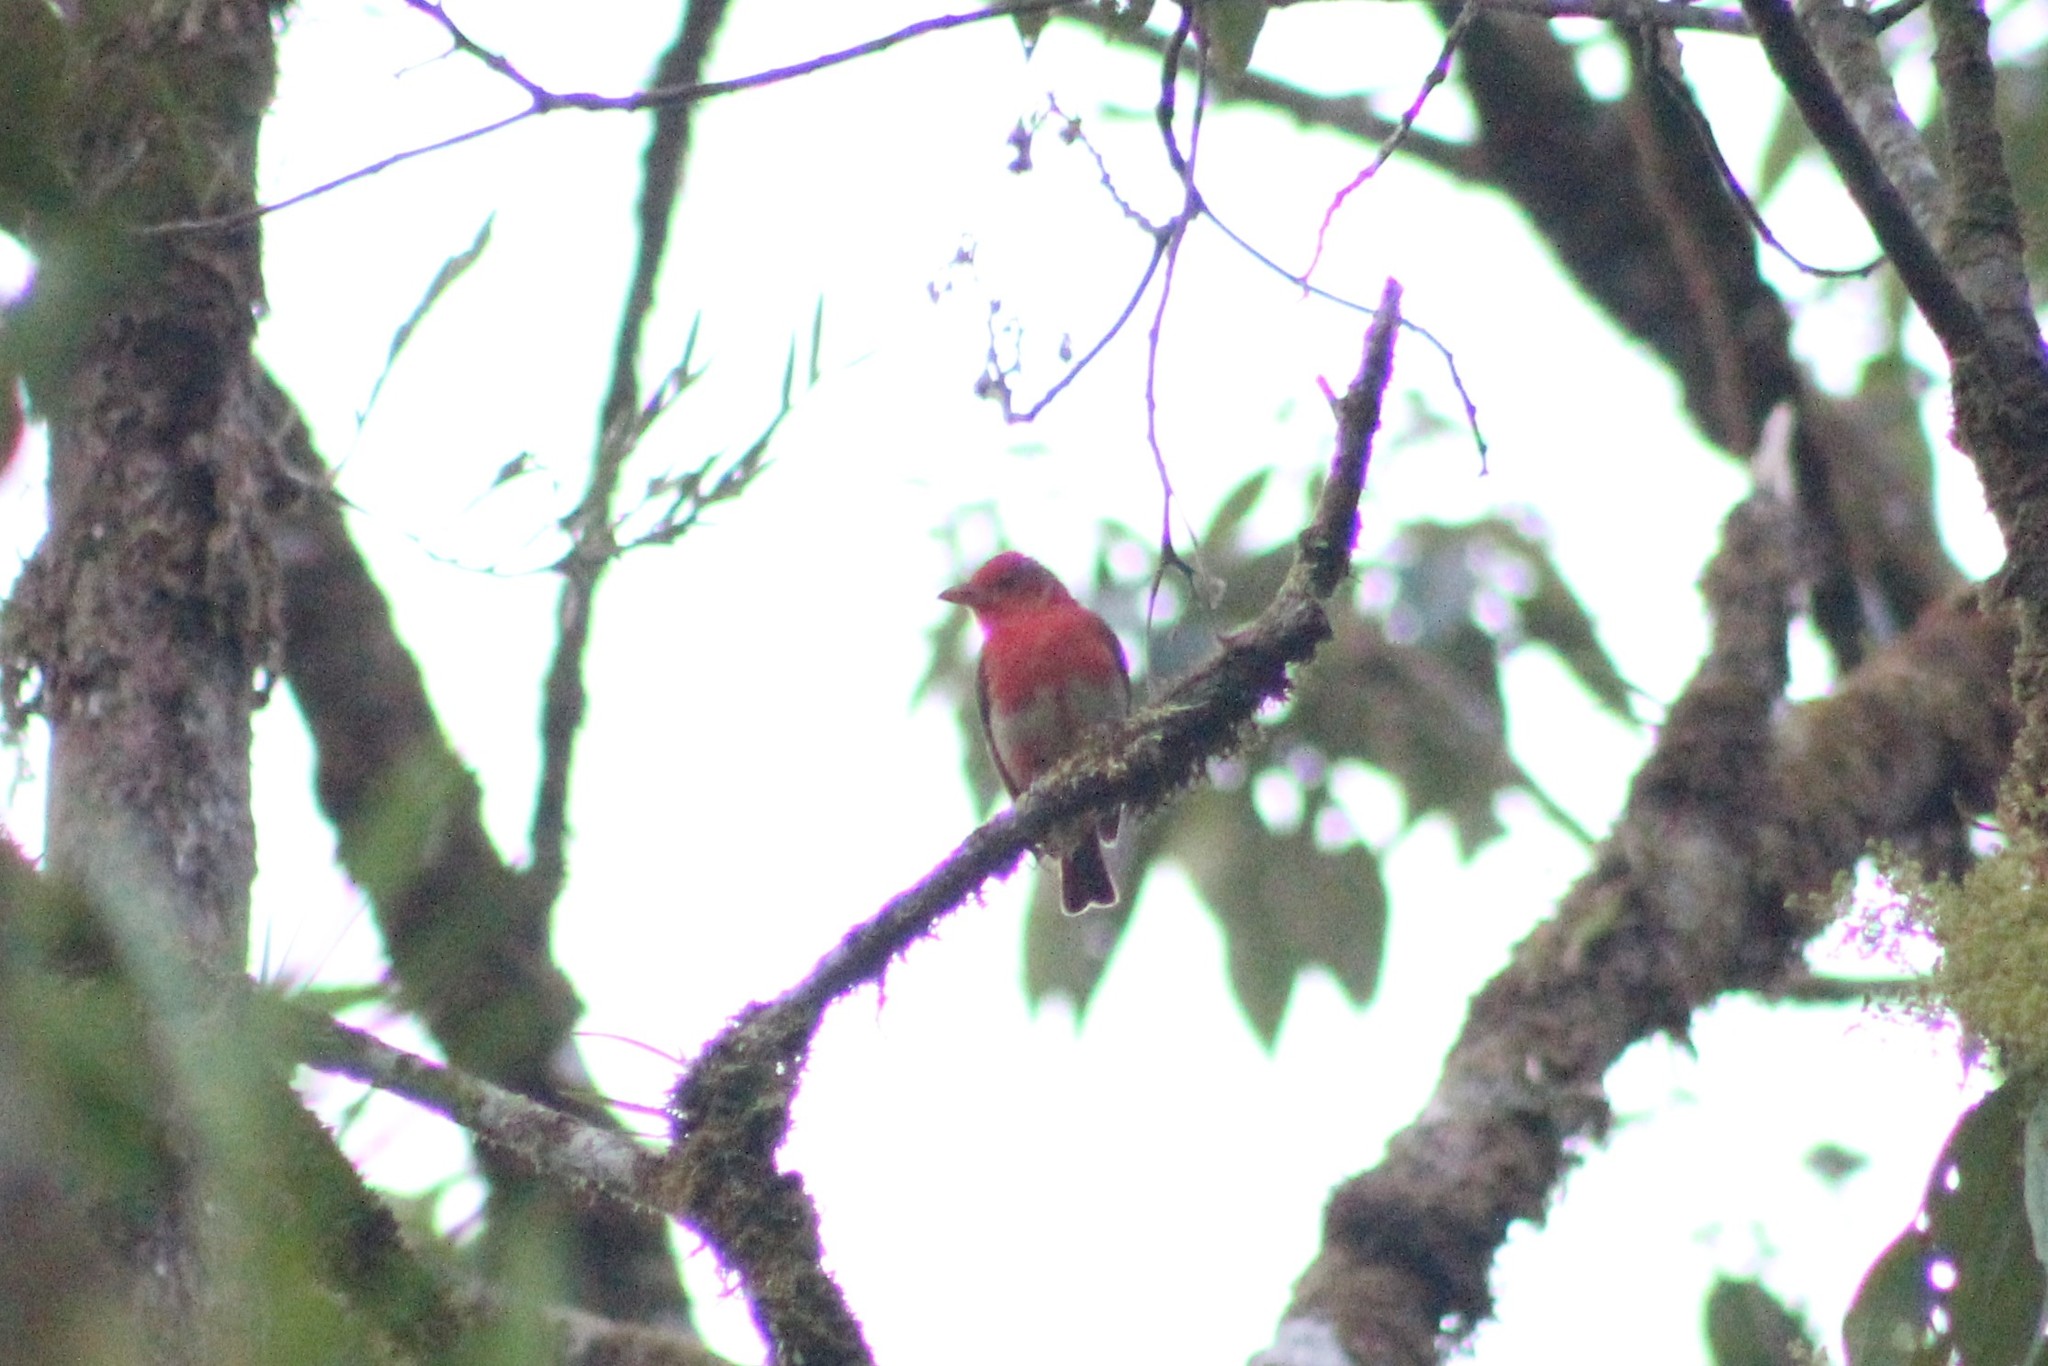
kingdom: Animalia
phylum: Chordata
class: Aves
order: Passeriformes
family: Cardinalidae
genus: Piranga
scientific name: Piranga rubra
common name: Summer tanager
